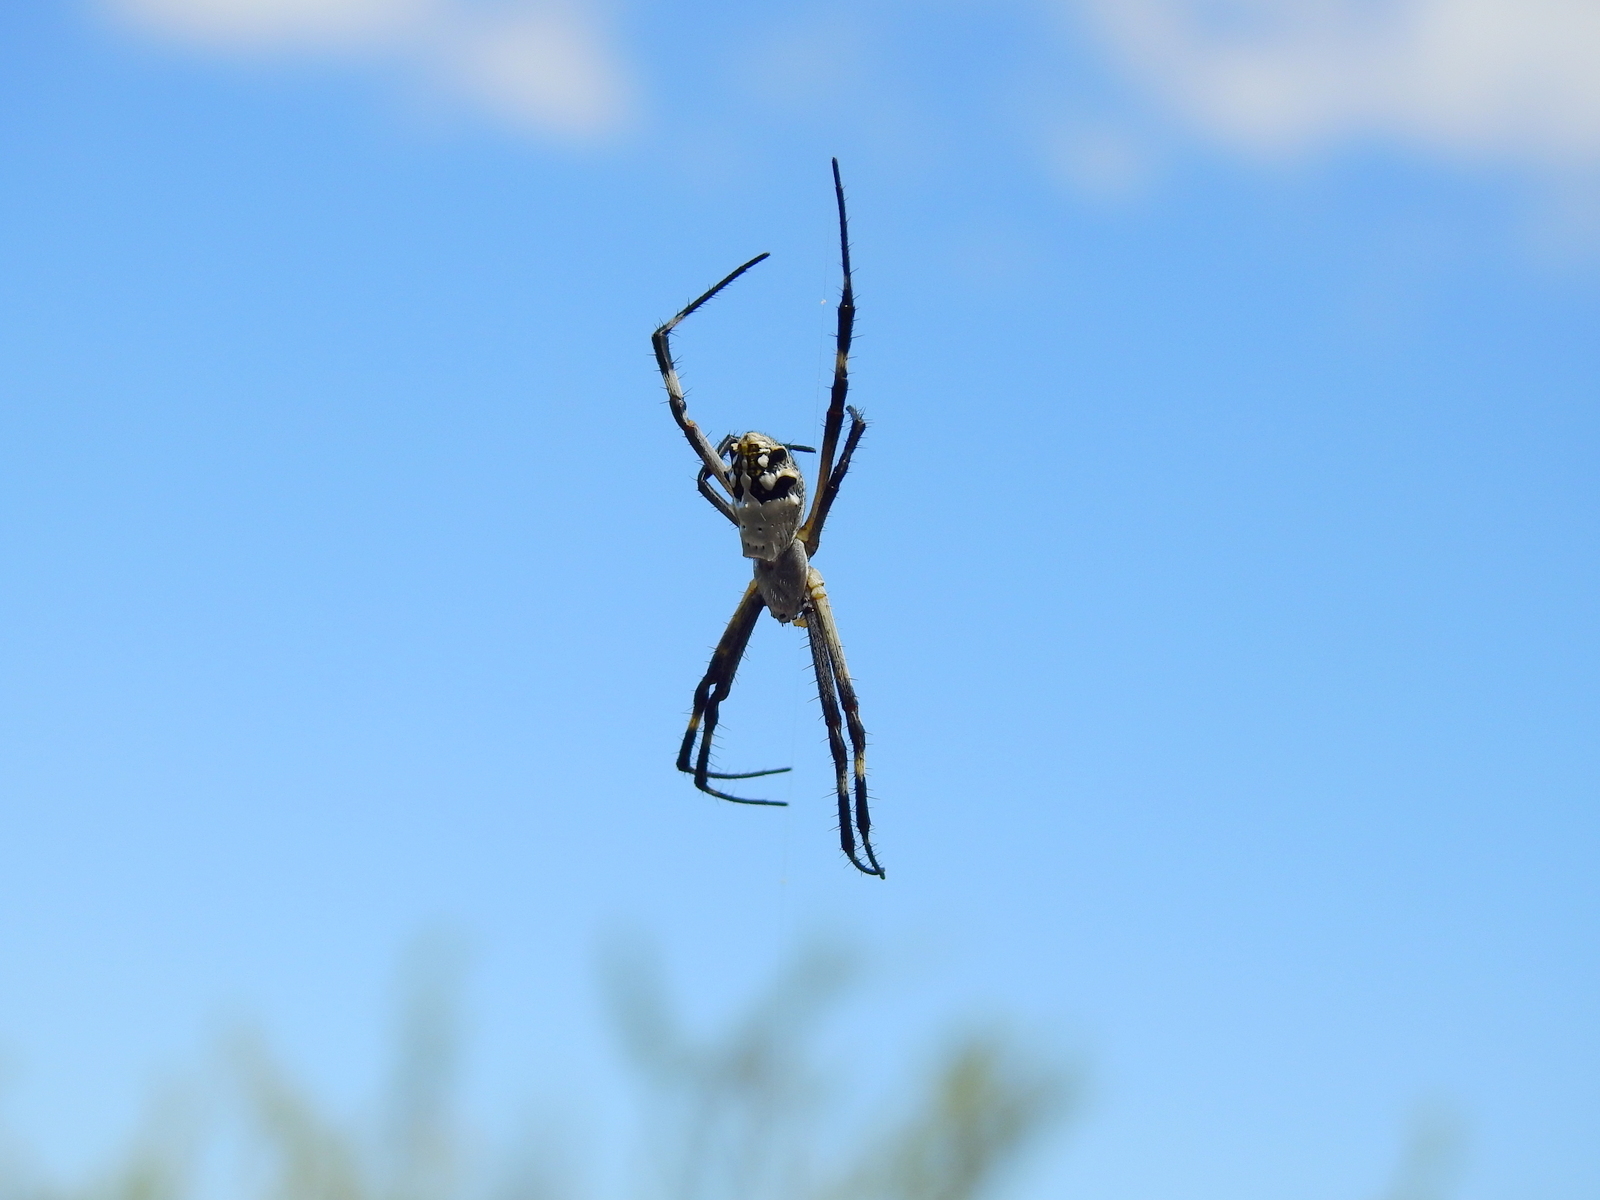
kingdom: Animalia
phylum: Arthropoda
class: Arachnida
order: Araneae
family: Araneidae
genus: Argiope
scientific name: Argiope argentata
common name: Orb weavers
